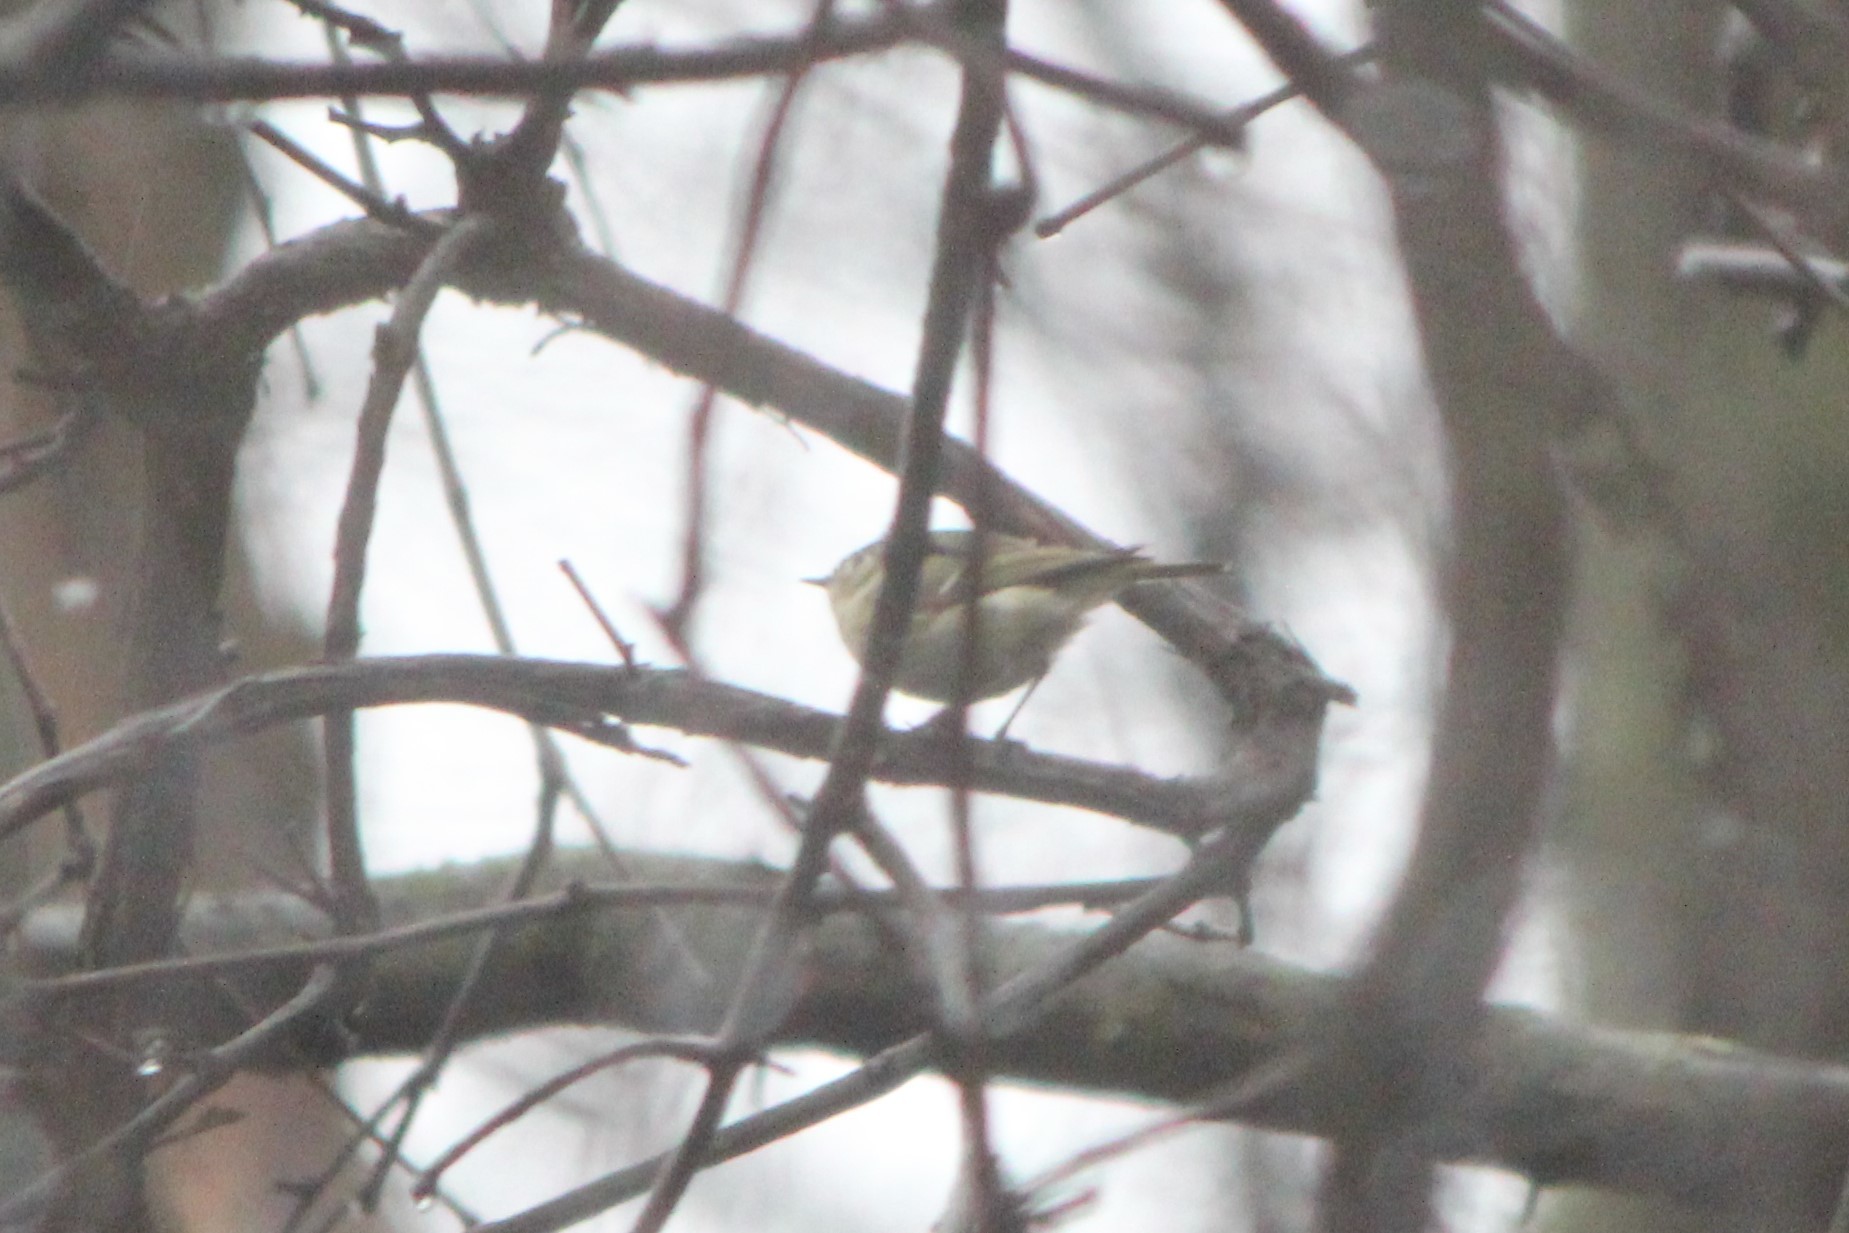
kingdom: Animalia
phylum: Chordata
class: Aves
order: Passeriformes
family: Regulidae
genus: Regulus
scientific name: Regulus calendula
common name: Ruby-crowned kinglet
